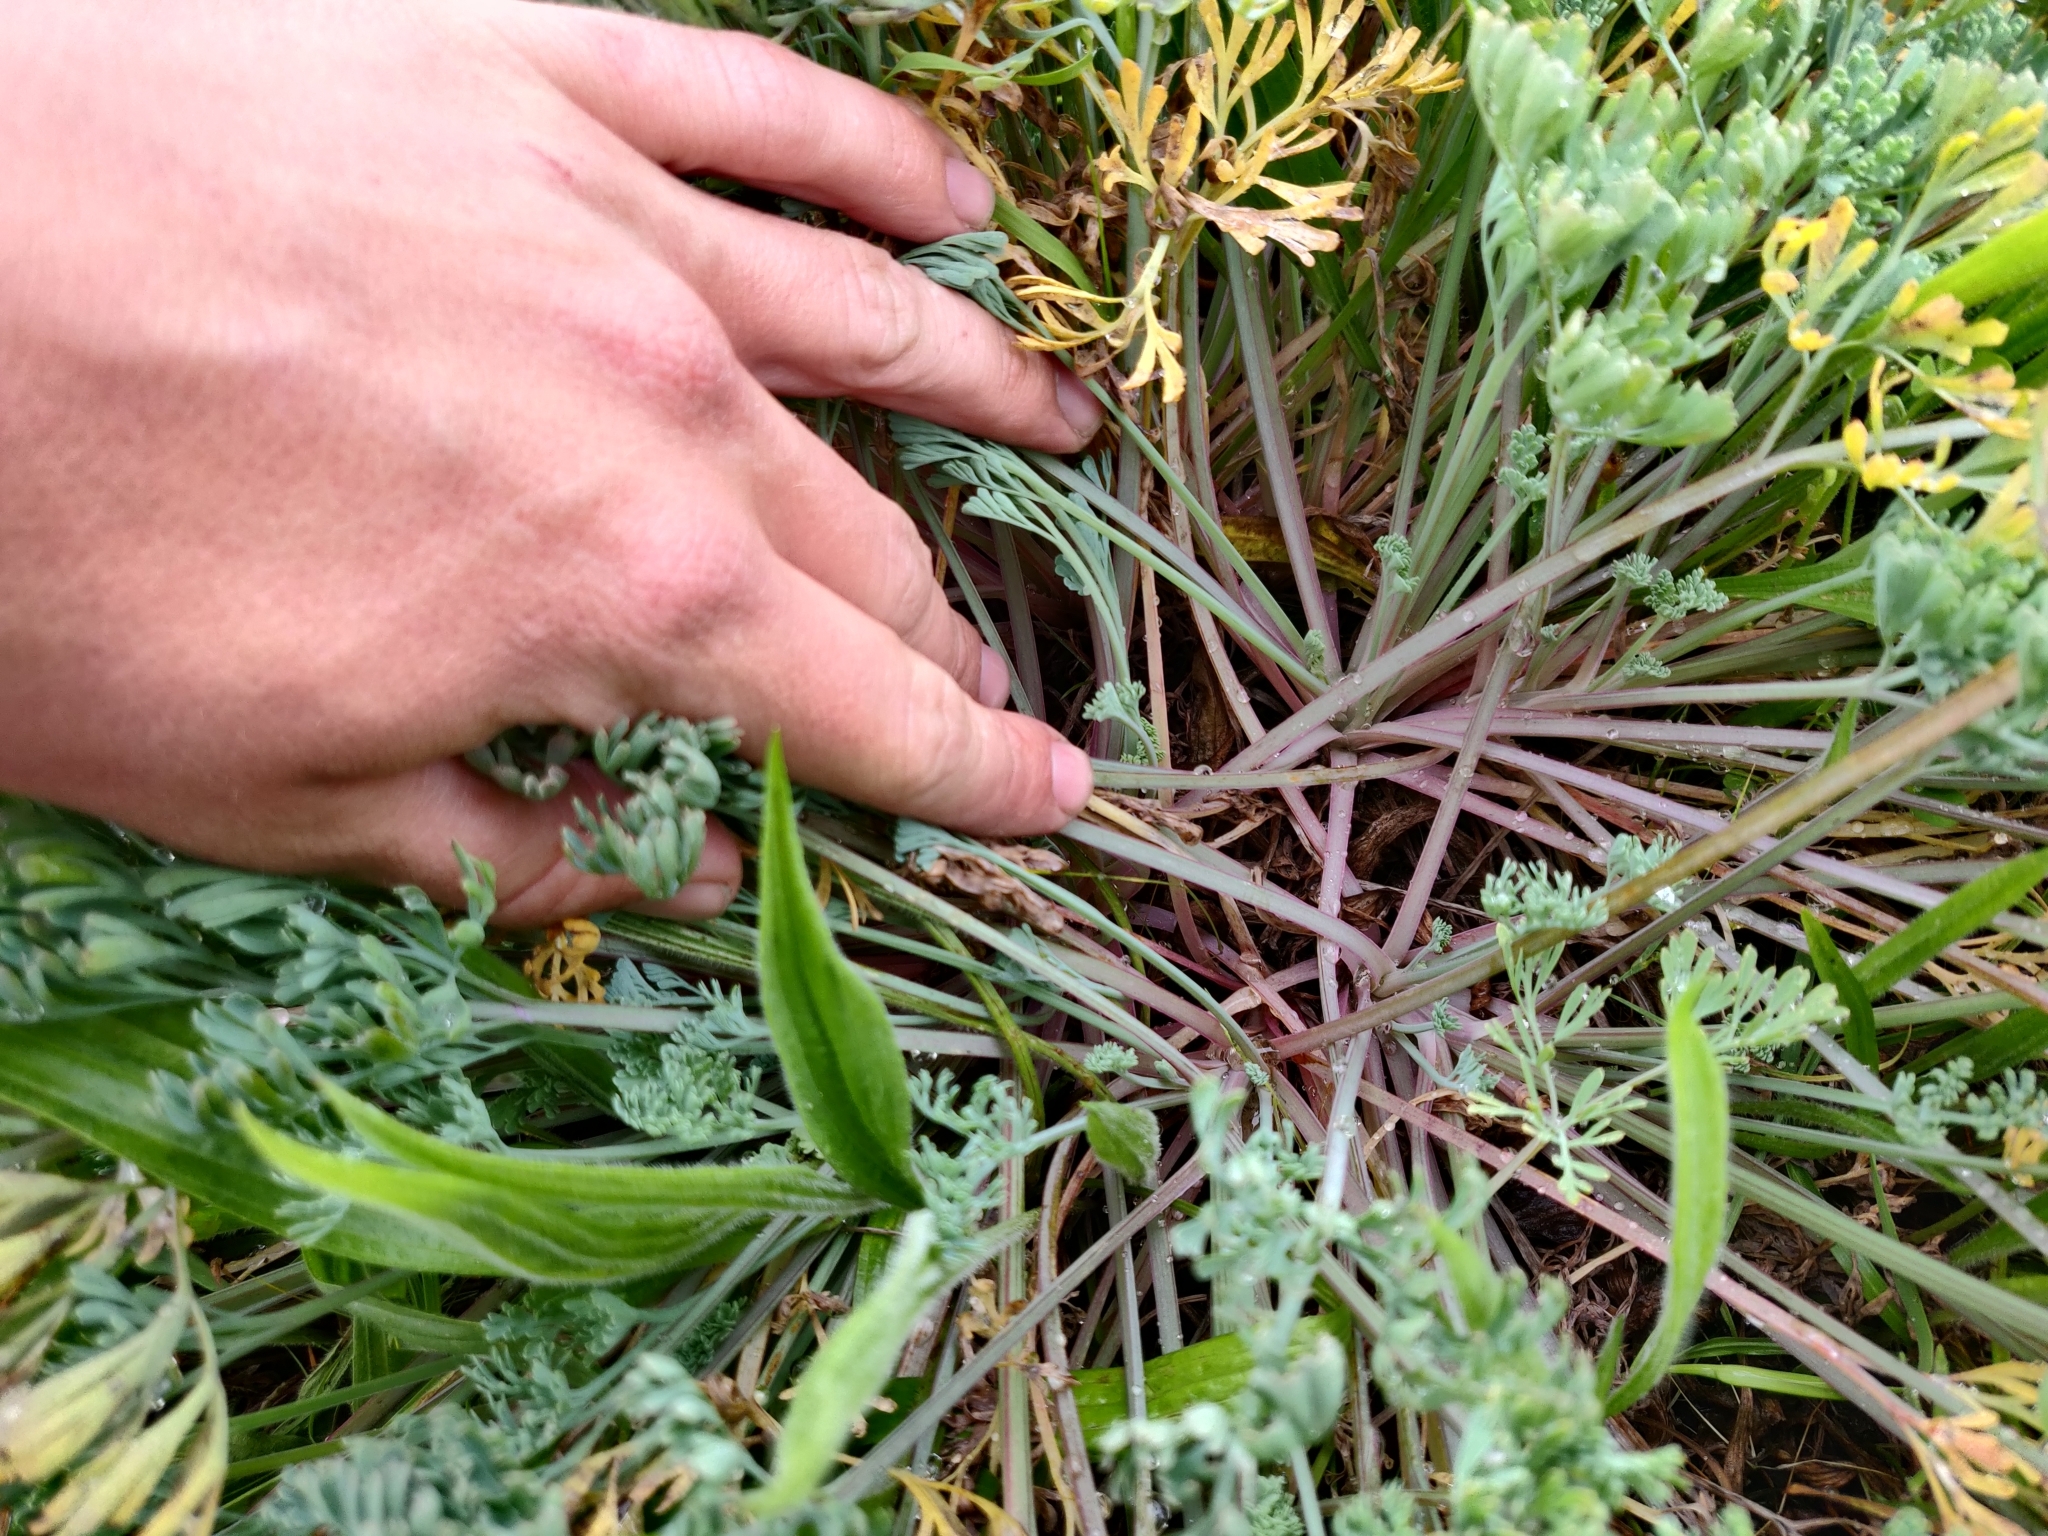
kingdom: Plantae
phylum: Tracheophyta
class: Magnoliopsida
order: Ranunculales
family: Papaveraceae
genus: Eschscholzia
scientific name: Eschscholzia californica
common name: California poppy
